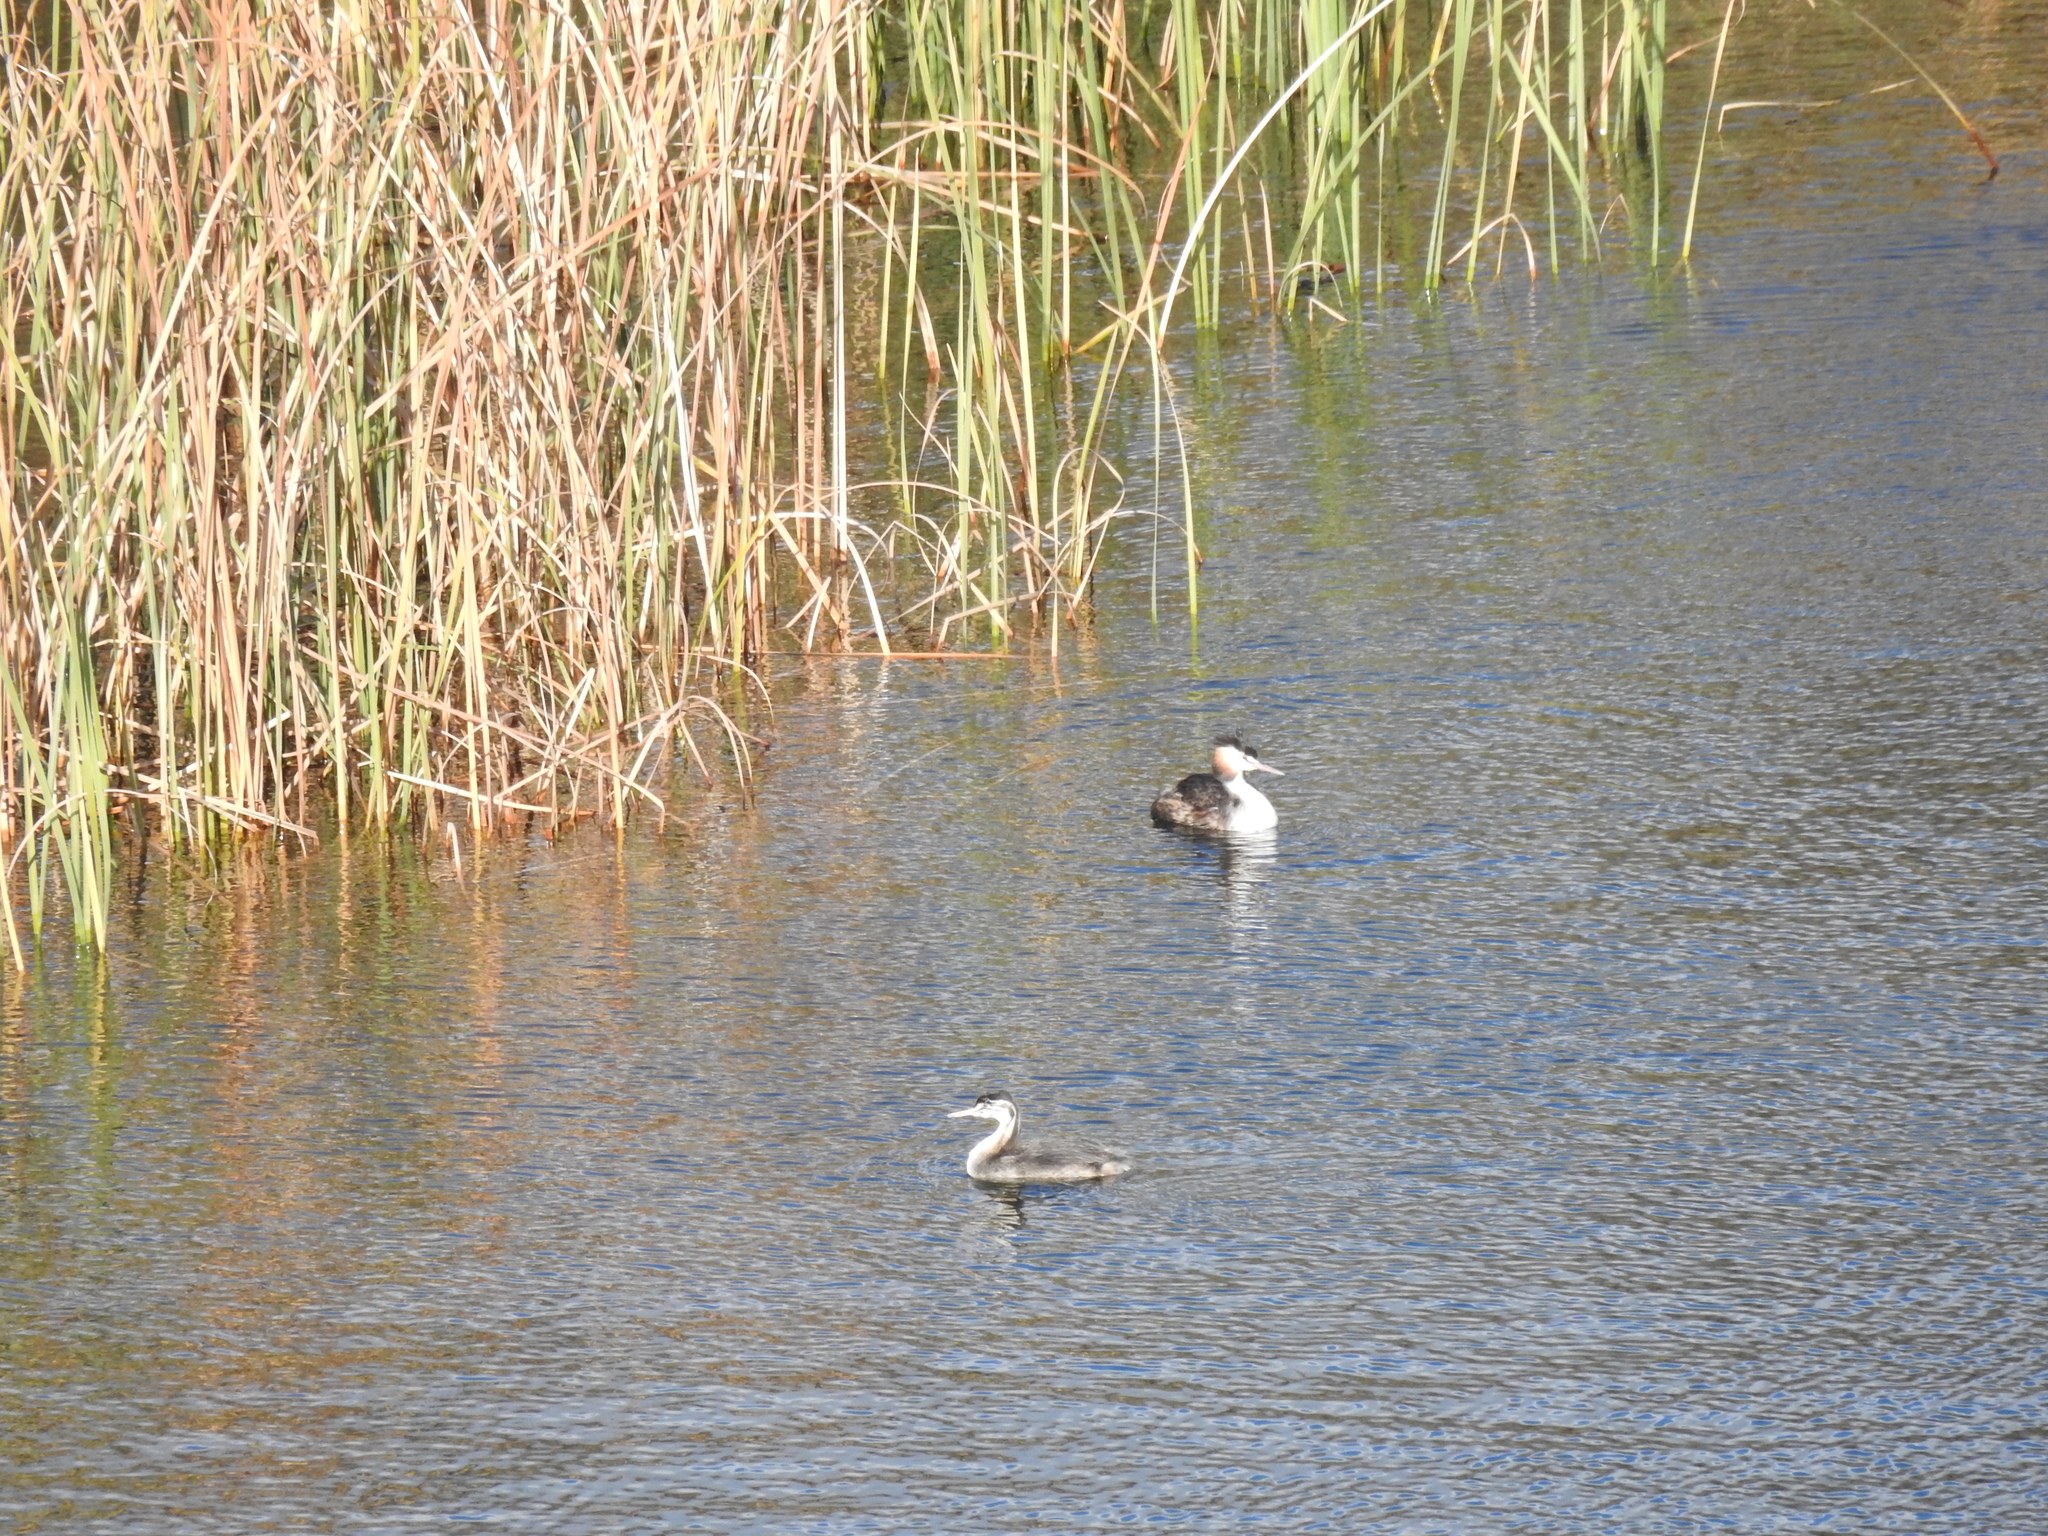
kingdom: Animalia
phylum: Chordata
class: Aves
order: Podicipediformes
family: Podicipedidae
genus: Podiceps
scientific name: Podiceps cristatus
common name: Great crested grebe
